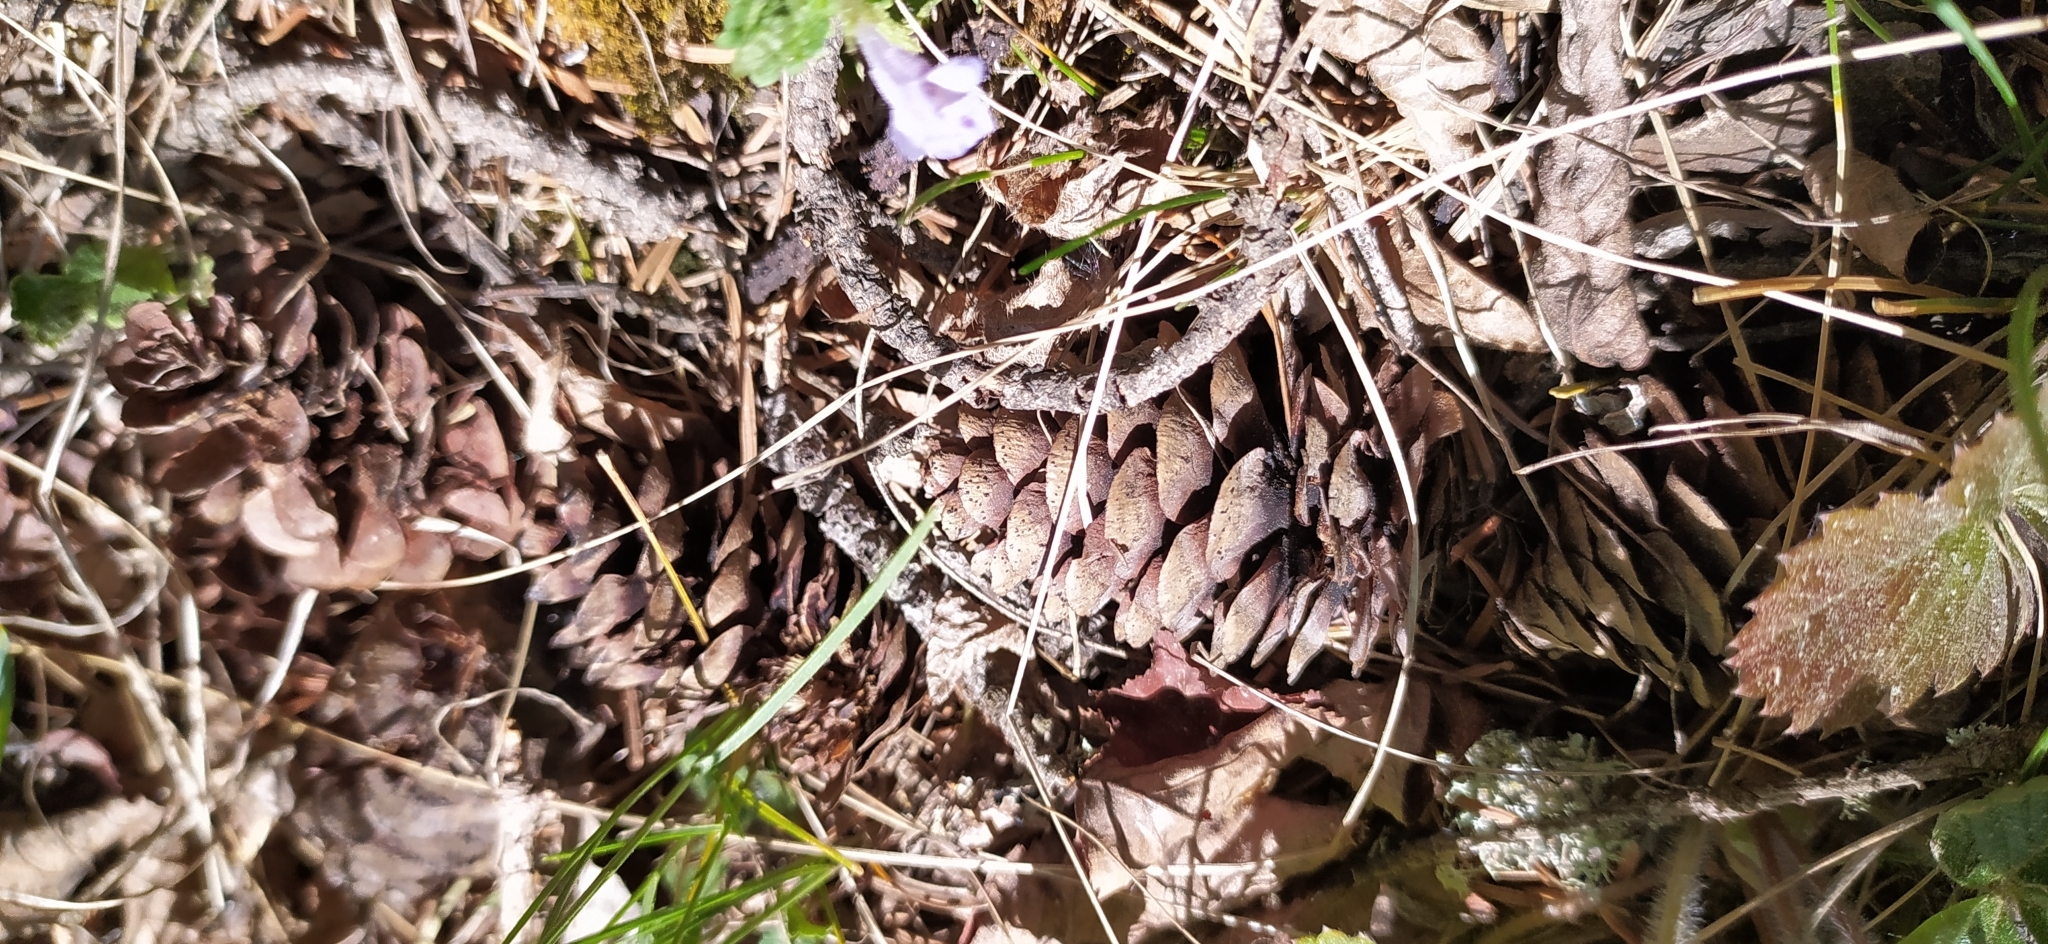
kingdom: Plantae
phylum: Tracheophyta
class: Pinopsida
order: Pinales
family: Pinaceae
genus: Picea
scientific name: Picea obovata
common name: Siberian spruce
